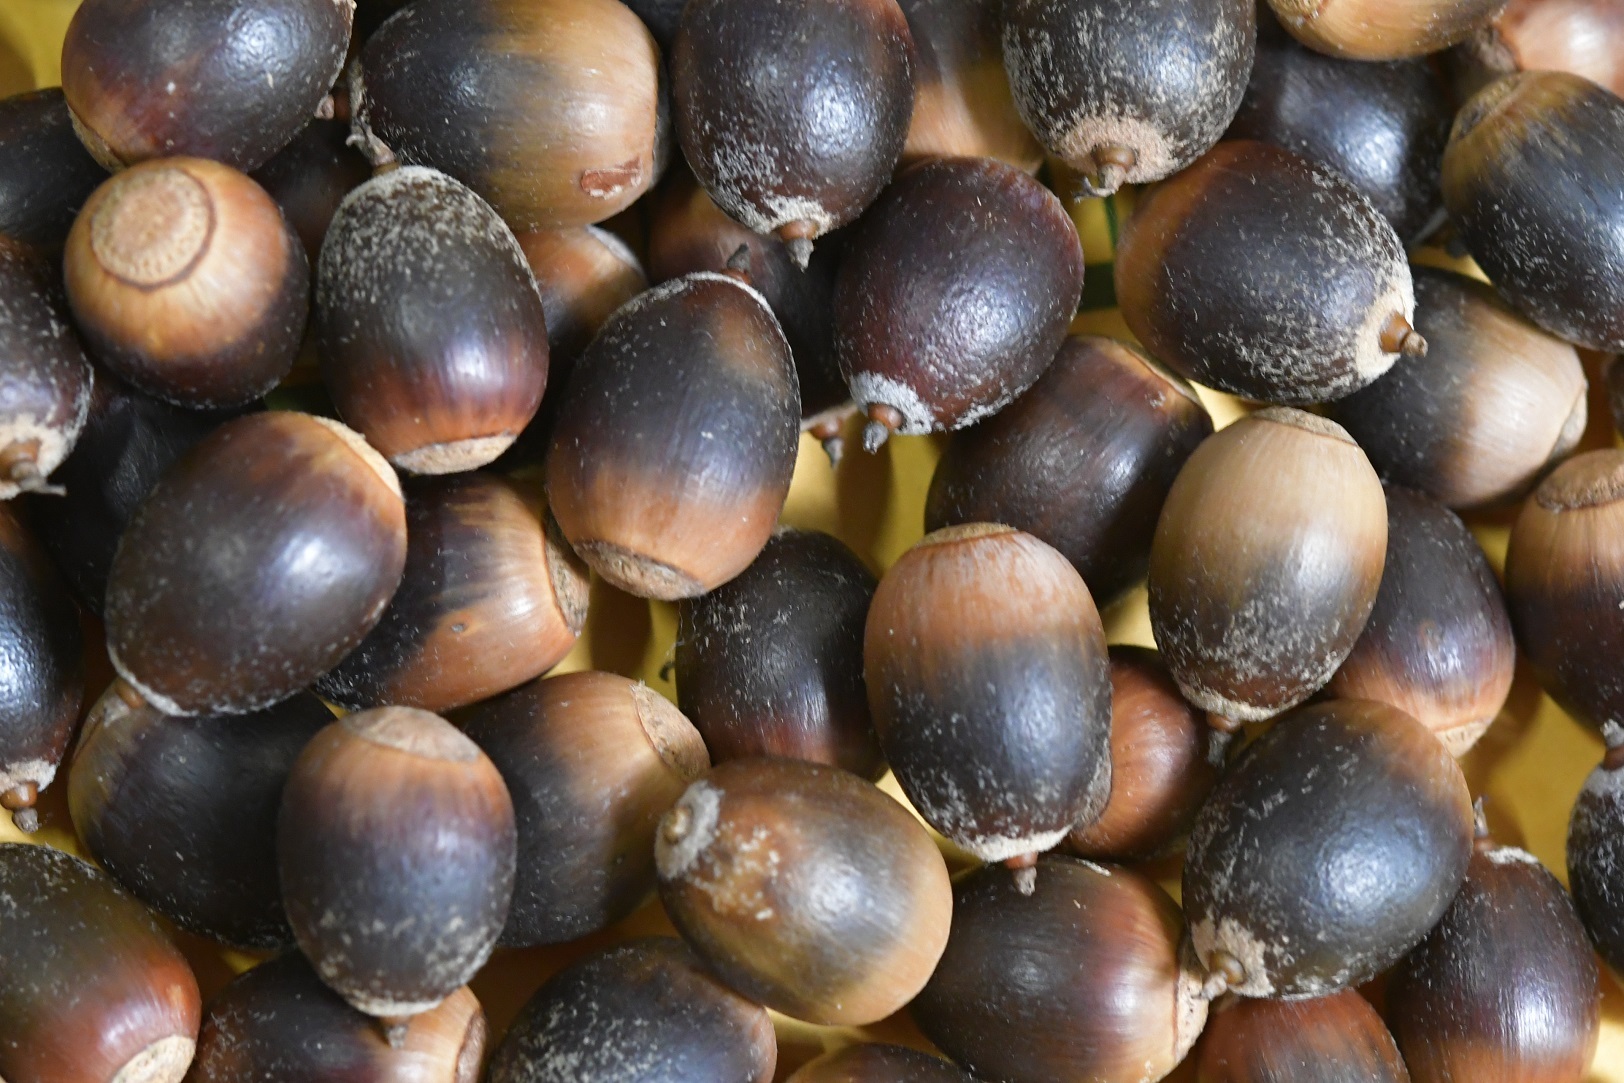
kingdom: Plantae
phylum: Tracheophyta
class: Magnoliopsida
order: Fagales
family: Fagaceae
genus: Quercus
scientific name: Quercus dysophylla
